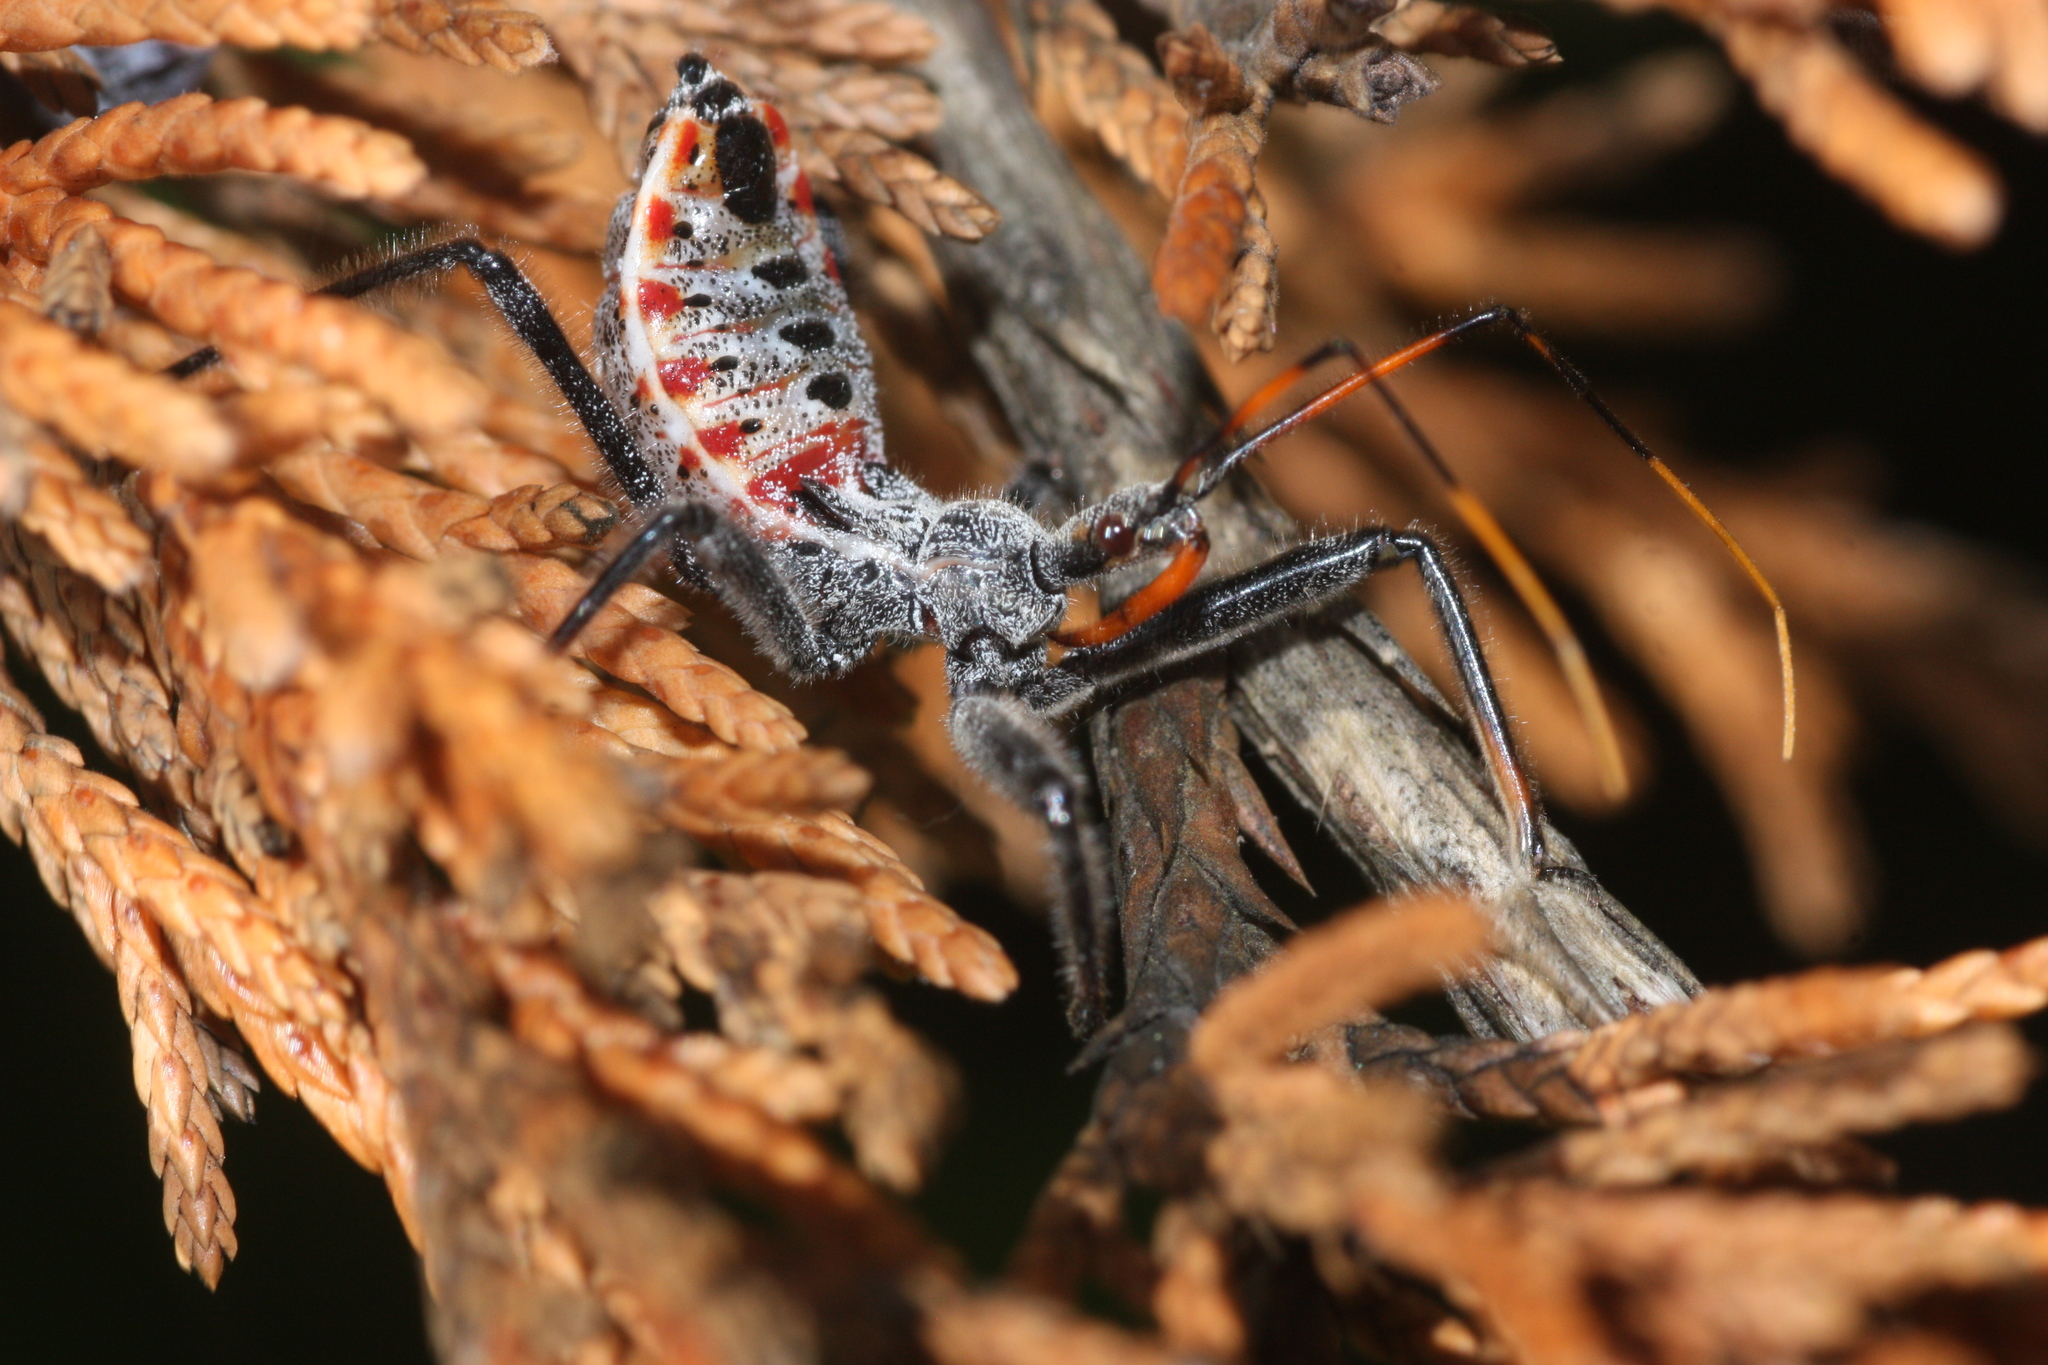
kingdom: Animalia
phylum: Arthropoda
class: Insecta
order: Hemiptera
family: Reduviidae
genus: Arilus
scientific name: Arilus cristatus
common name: North american wheel bug
